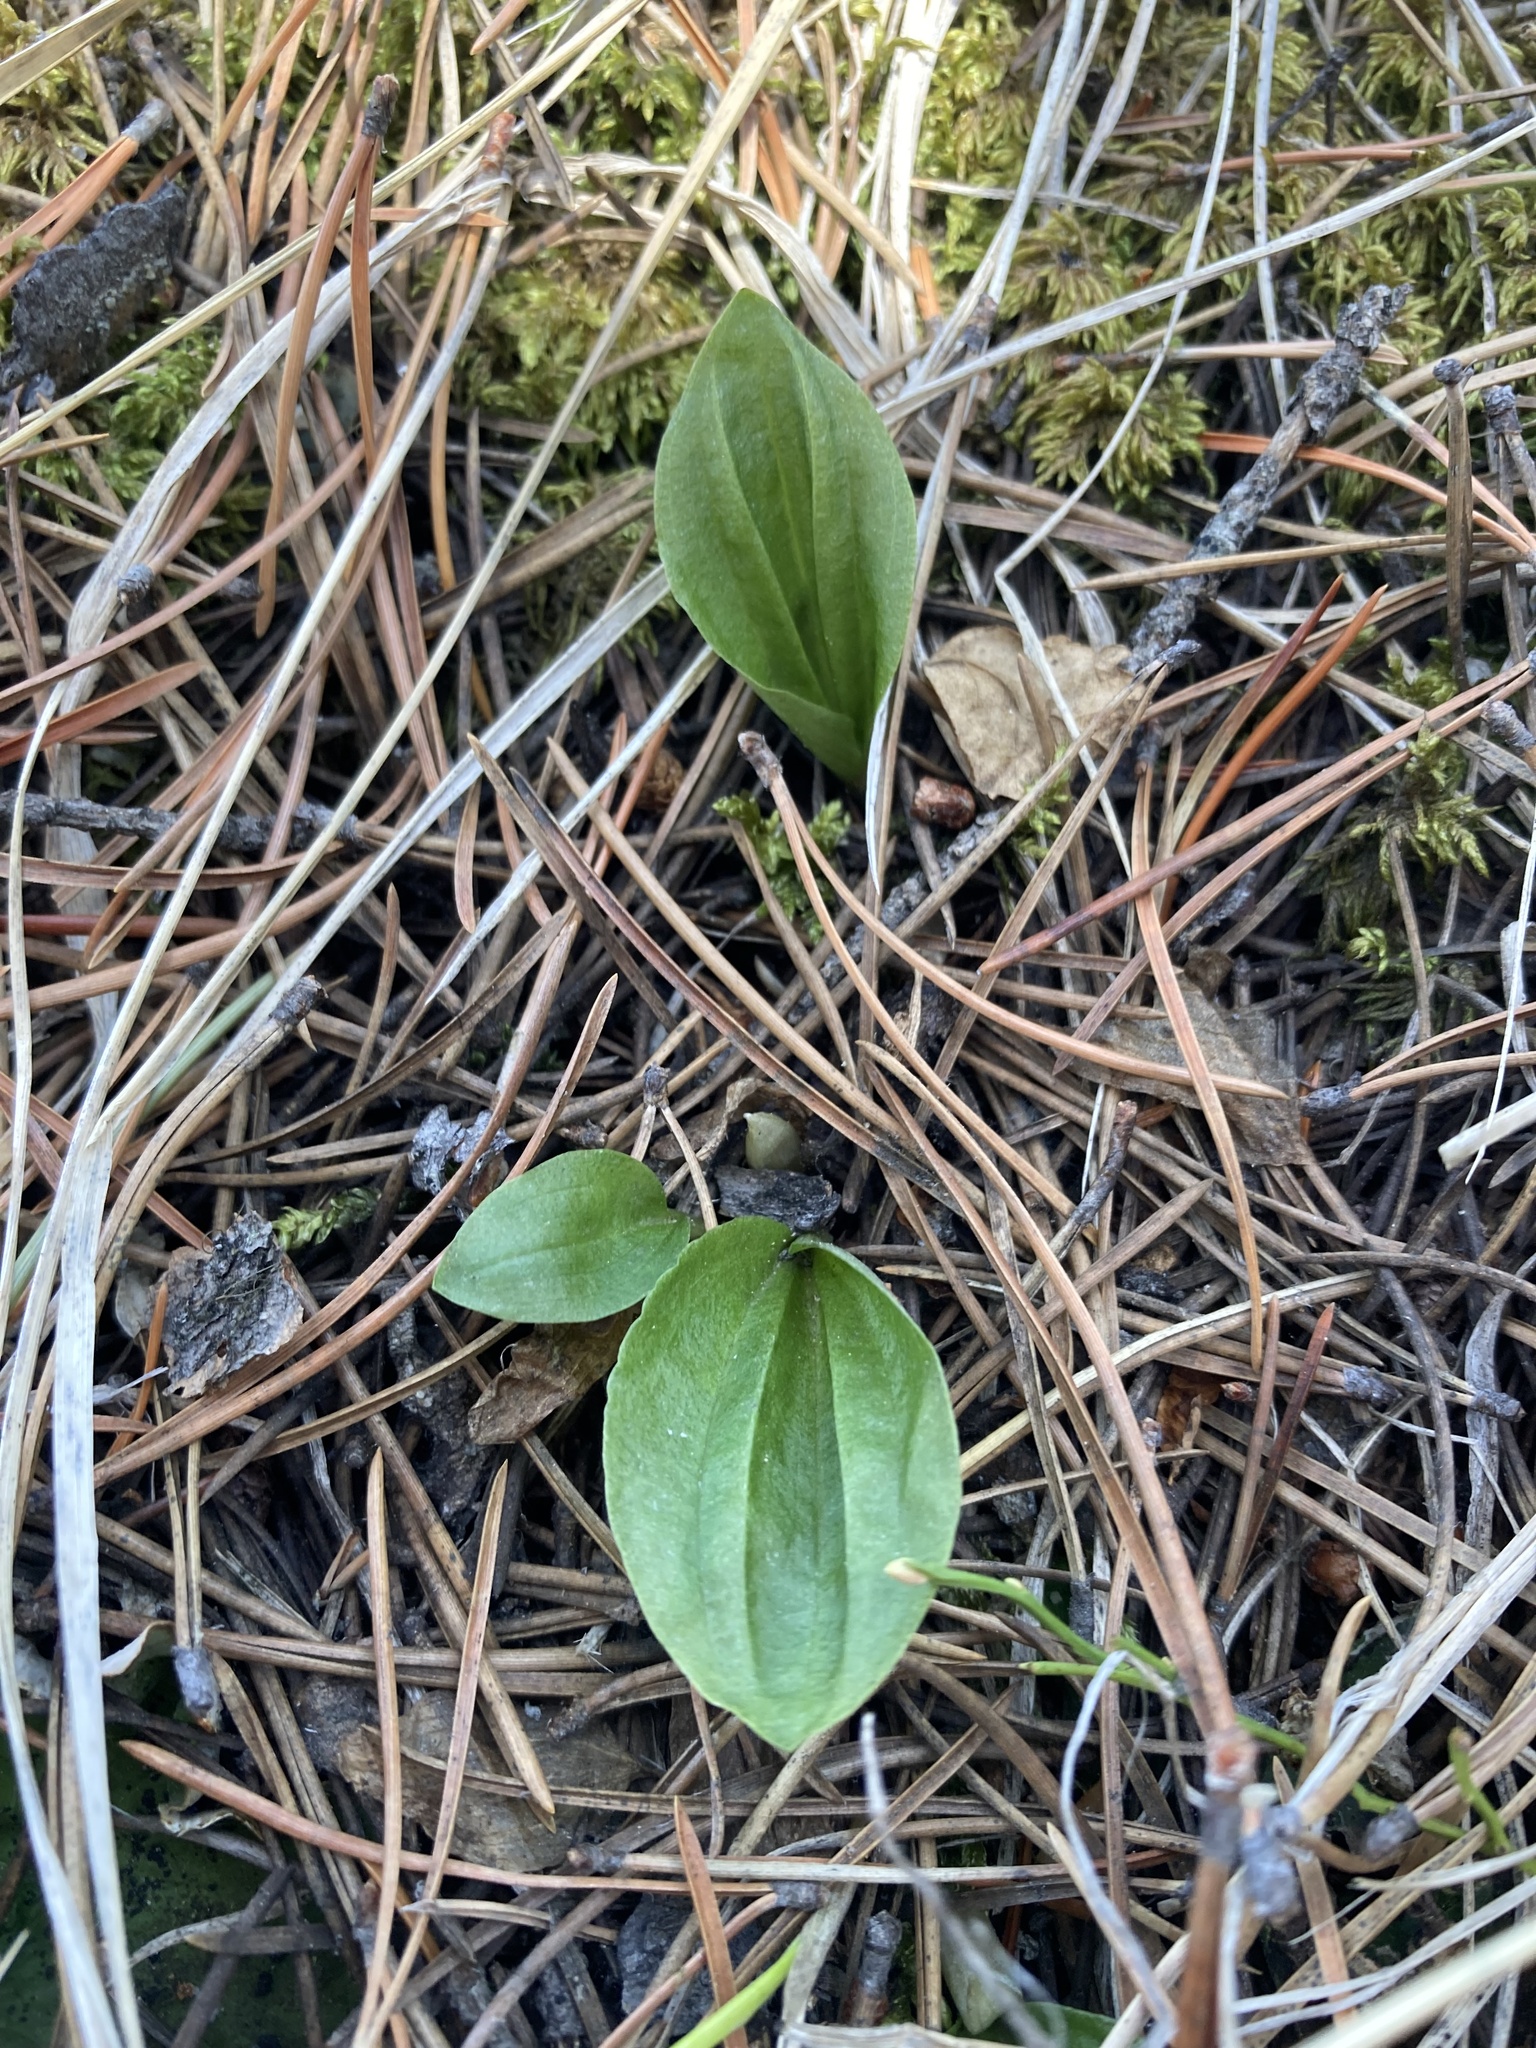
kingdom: Plantae
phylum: Tracheophyta
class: Liliopsida
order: Asparagales
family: Orchidaceae
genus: Calypso
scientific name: Calypso bulbosa
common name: Calypso
